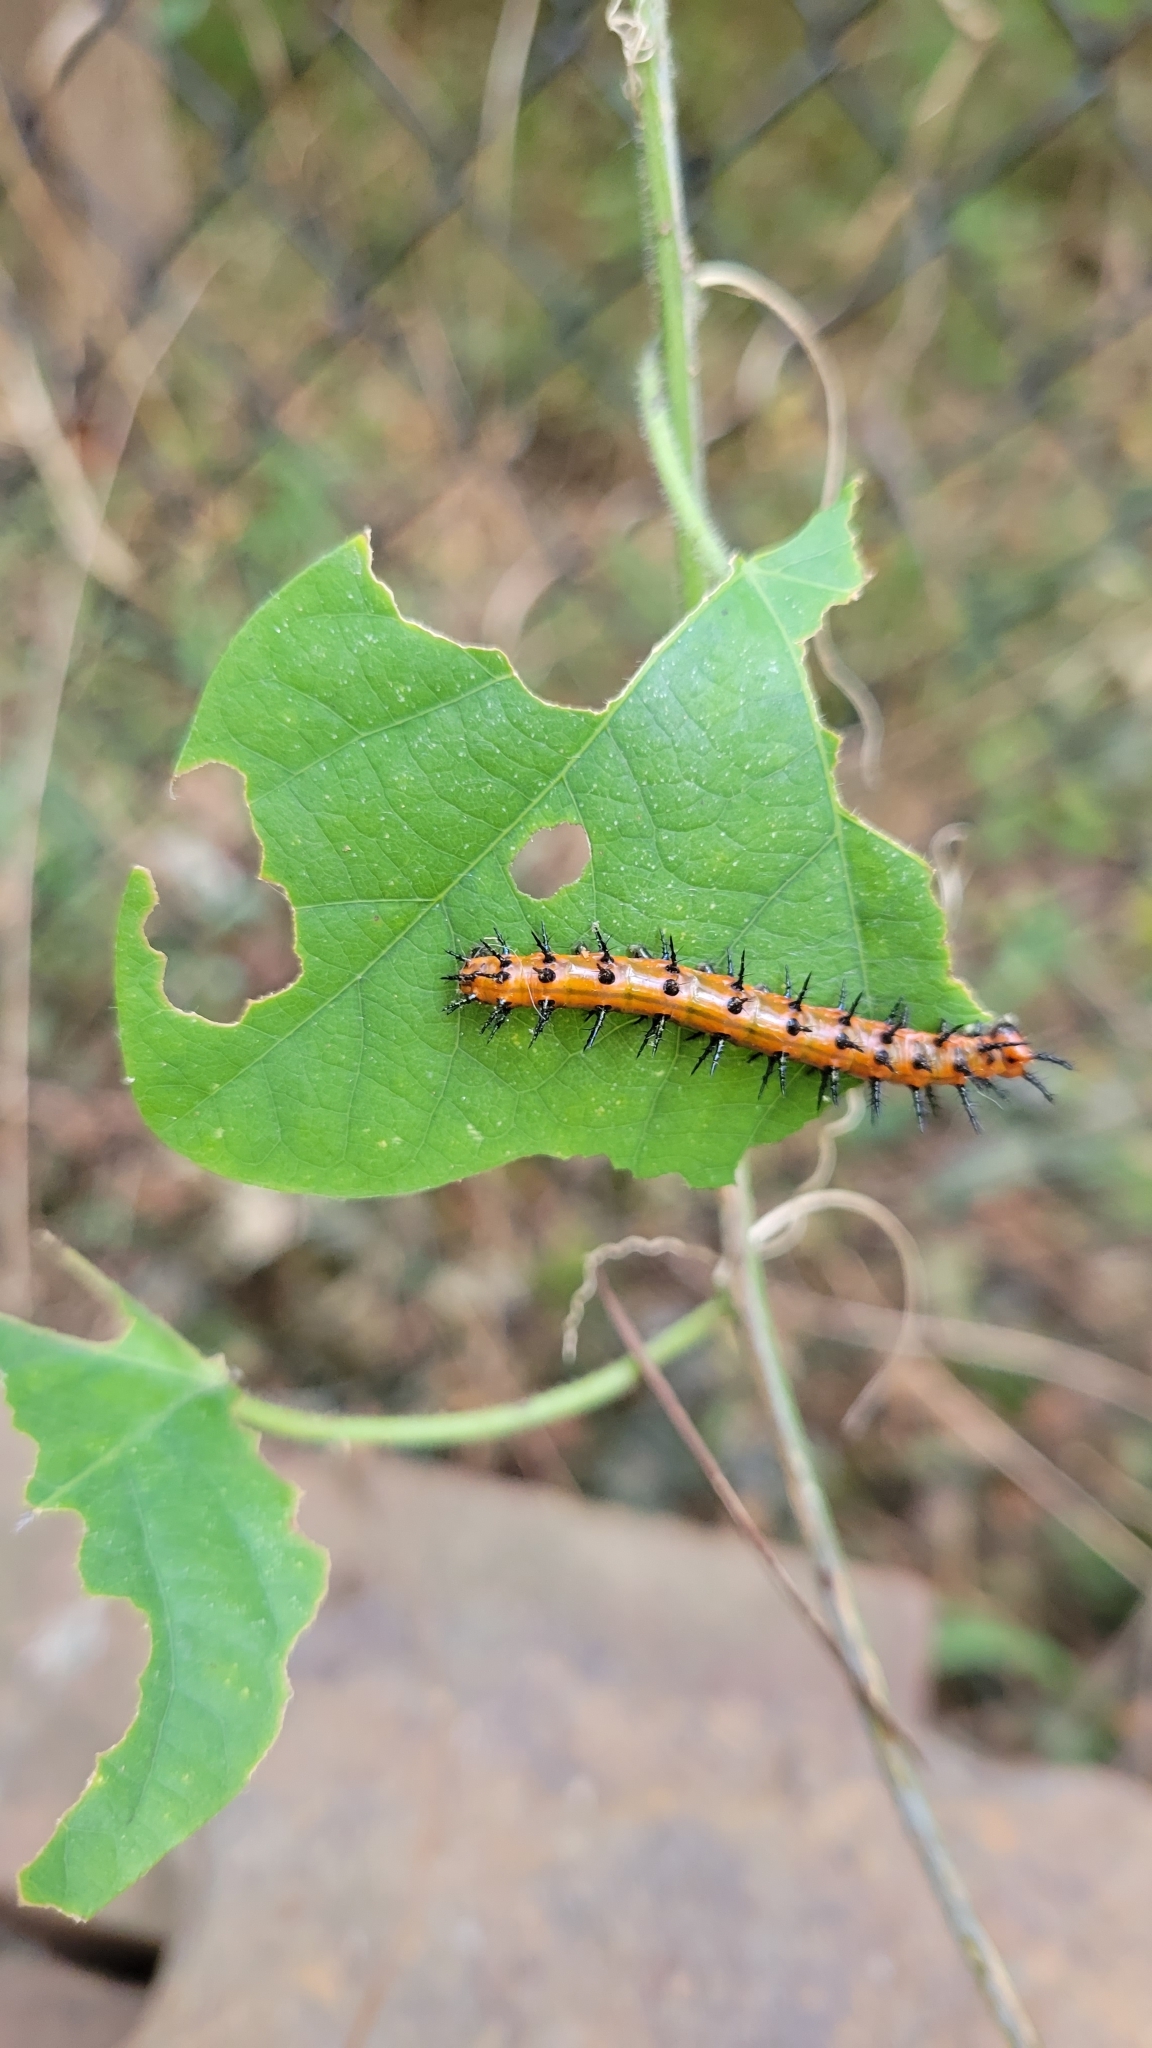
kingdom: Animalia
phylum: Arthropoda
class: Insecta
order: Lepidoptera
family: Nymphalidae
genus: Dione
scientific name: Dione vanillae
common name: Gulf fritillary
